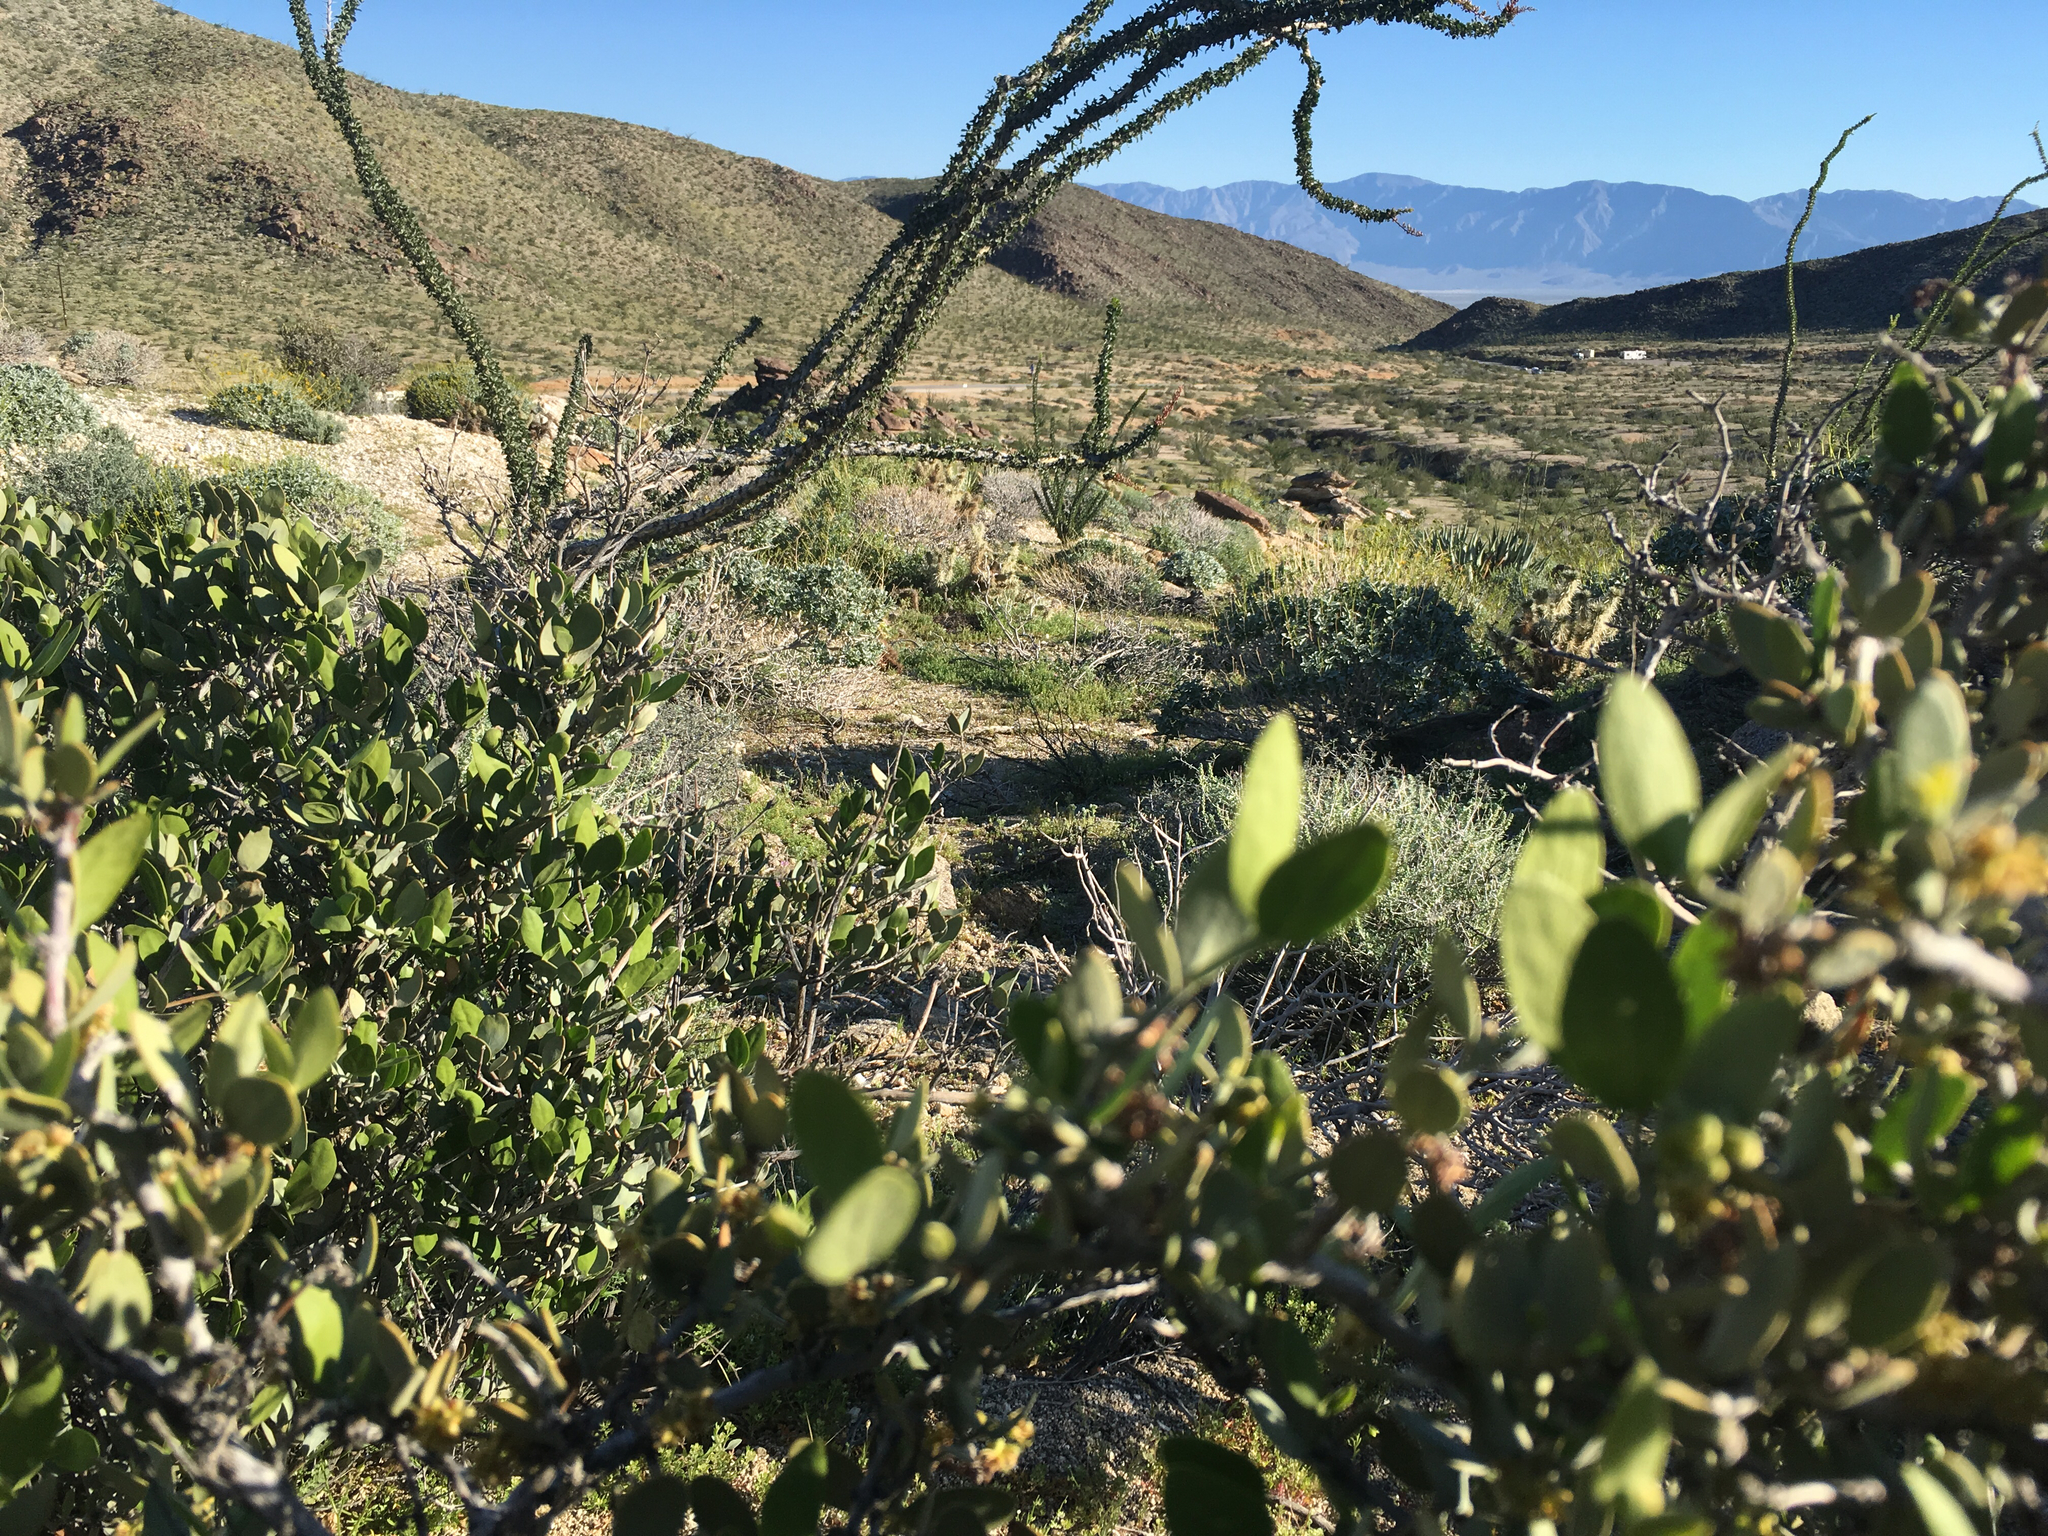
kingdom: Plantae
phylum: Tracheophyta
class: Magnoliopsida
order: Caryophyllales
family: Simmondsiaceae
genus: Simmondsia
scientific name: Simmondsia chinensis
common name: Jojoba
